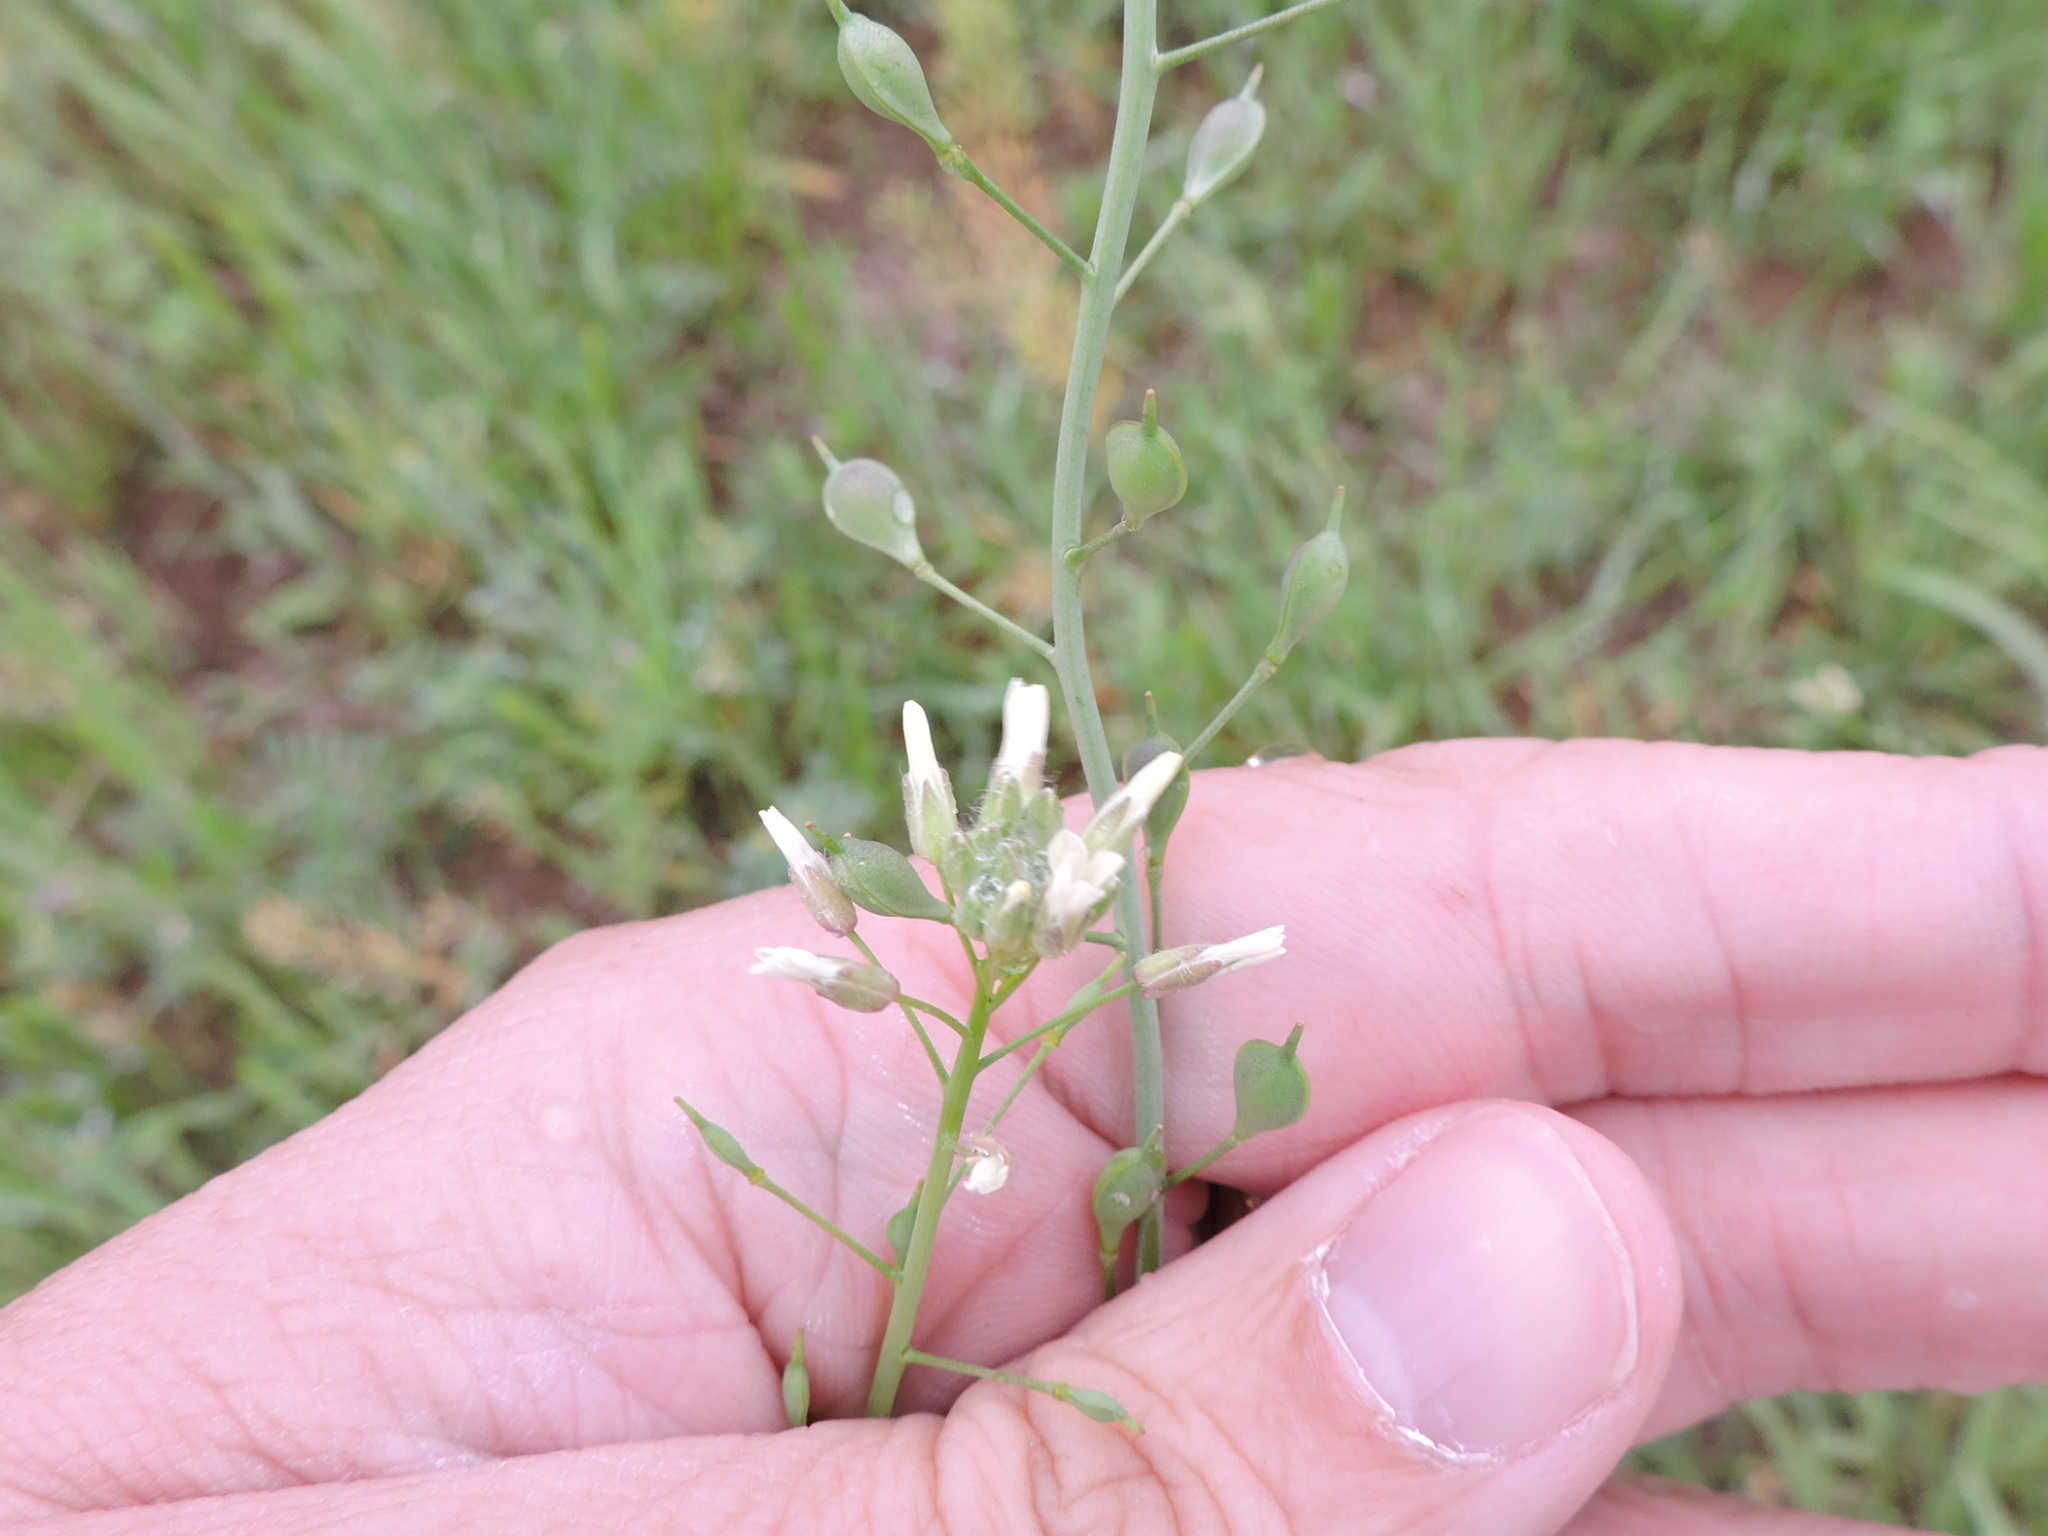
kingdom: Plantae
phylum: Tracheophyta
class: Magnoliopsida
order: Brassicales
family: Brassicaceae
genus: Camelina
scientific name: Camelina rumelica
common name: Graceful false flax
